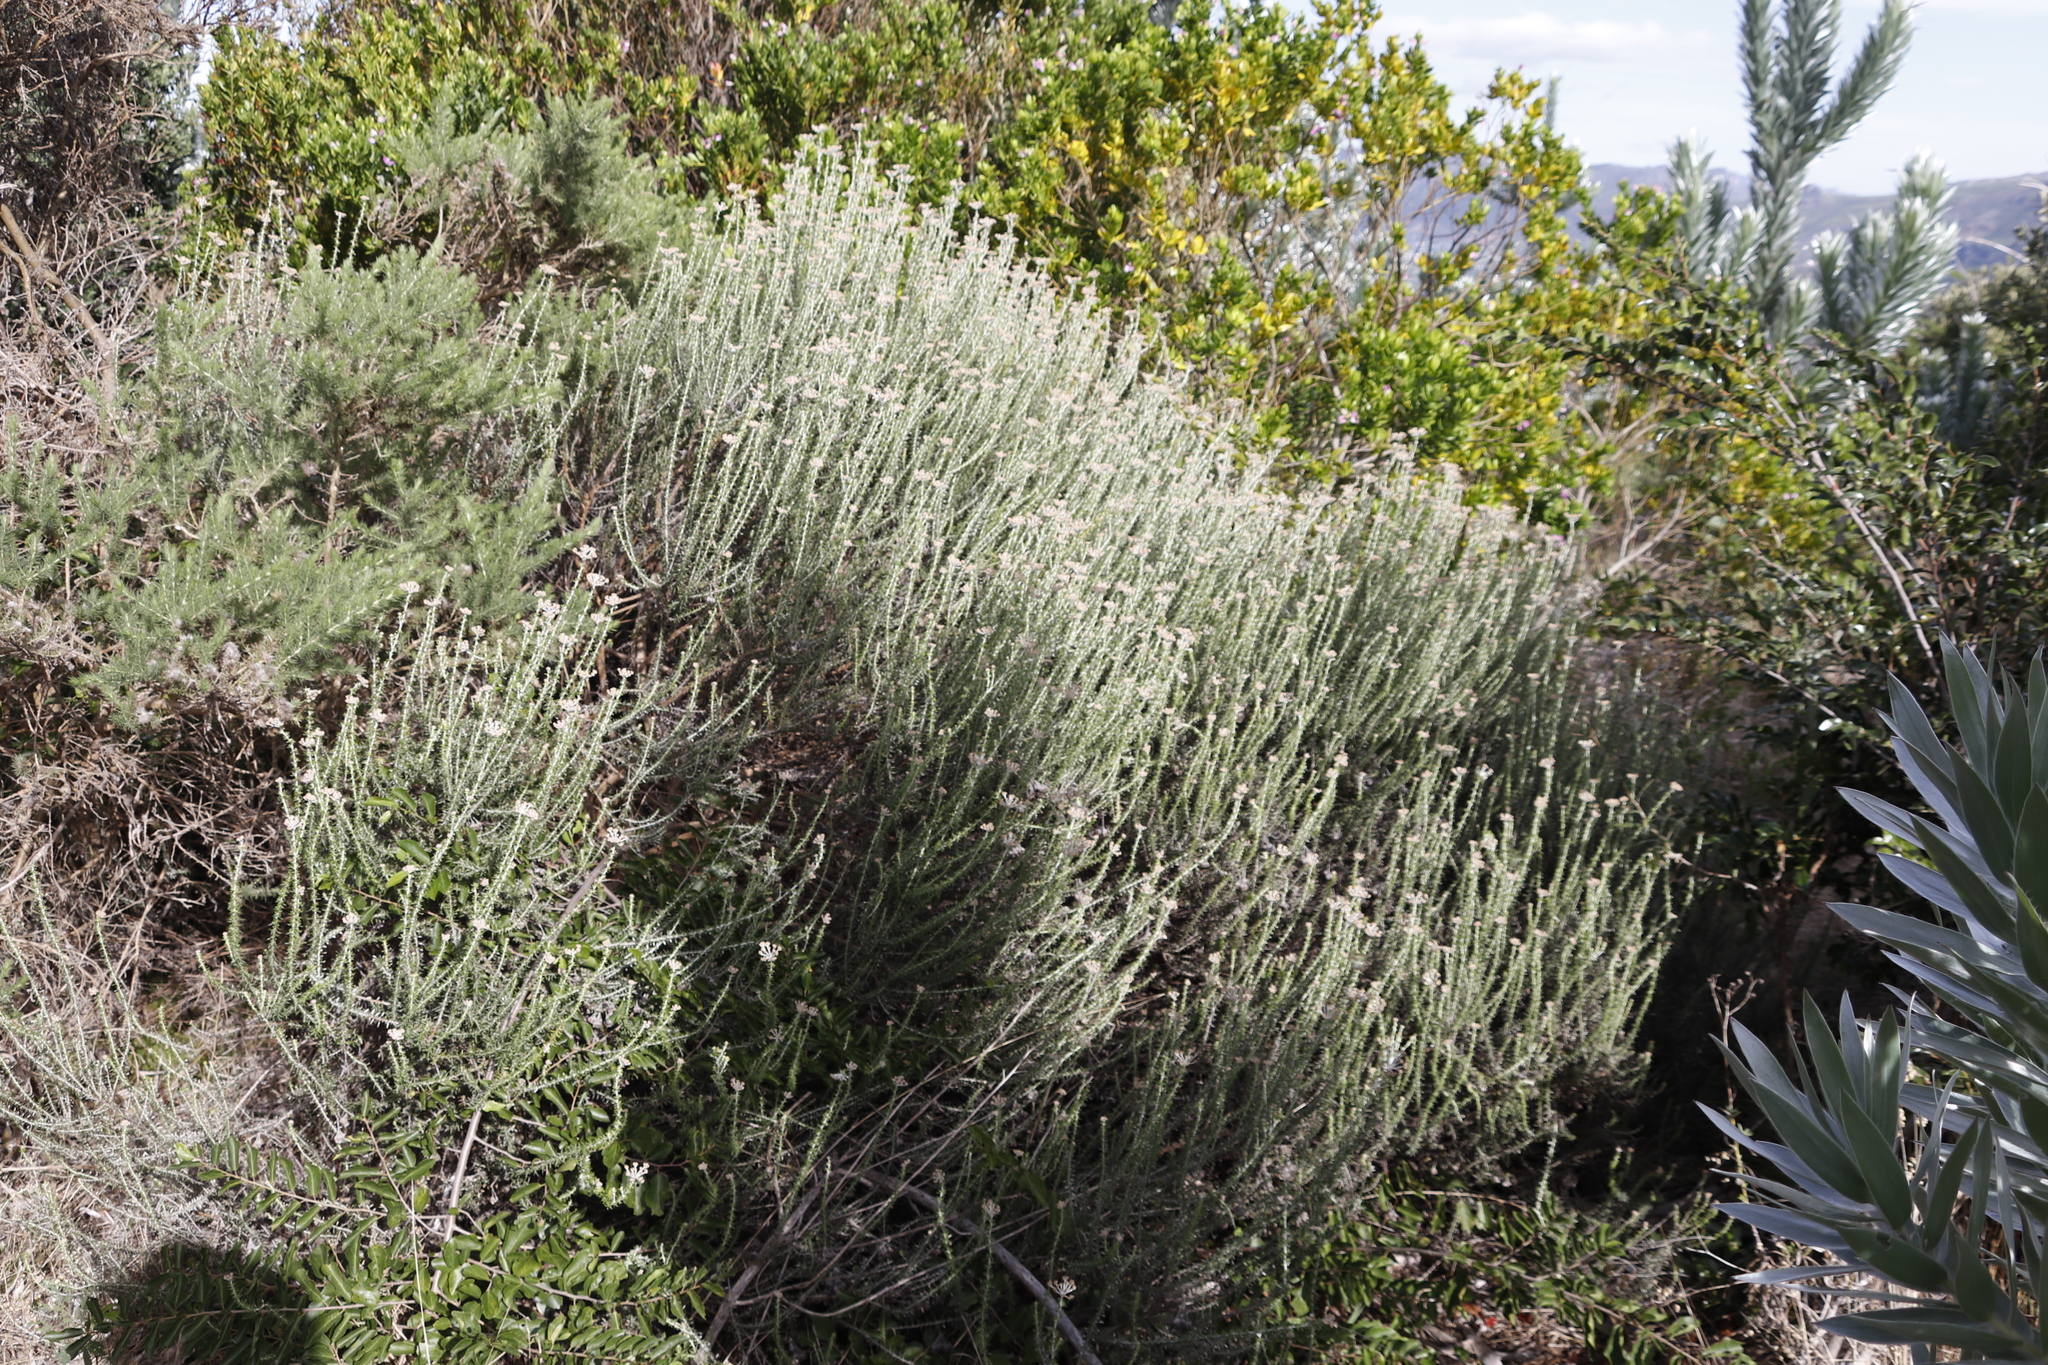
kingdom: Plantae
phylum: Tracheophyta
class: Magnoliopsida
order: Asterales
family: Asteraceae
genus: Metalasia
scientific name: Metalasia densa
